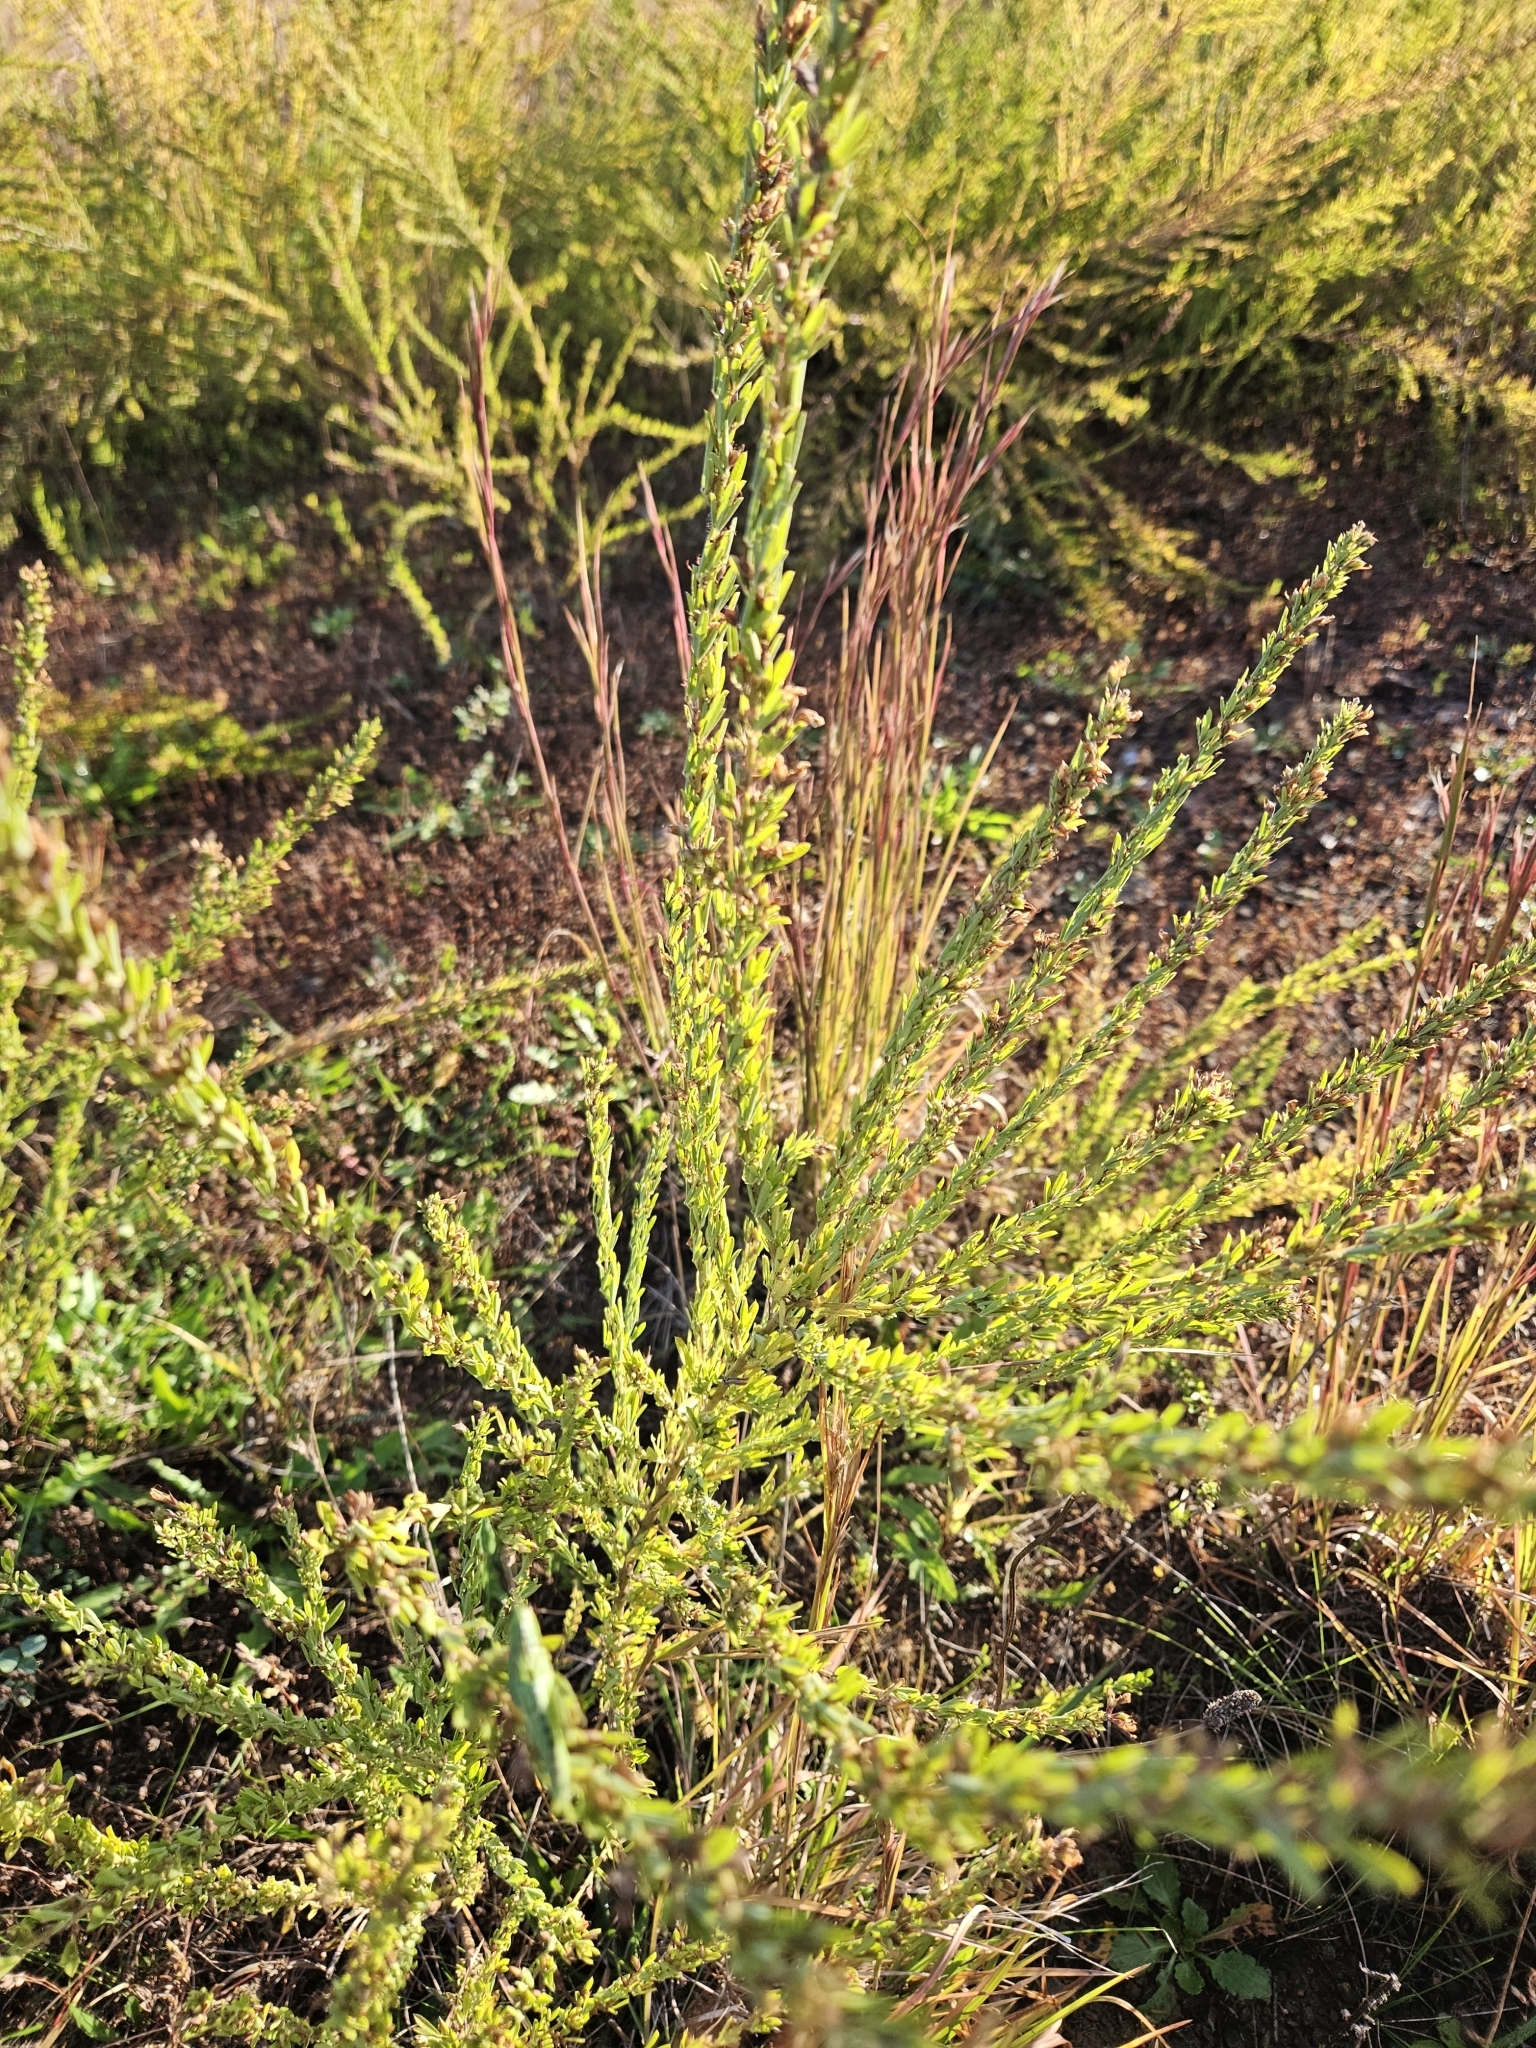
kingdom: Plantae
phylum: Tracheophyta
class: Magnoliopsida
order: Fabales
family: Fabaceae
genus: Lespedeza
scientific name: Lespedeza cuneata
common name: Chinese bush-clover
